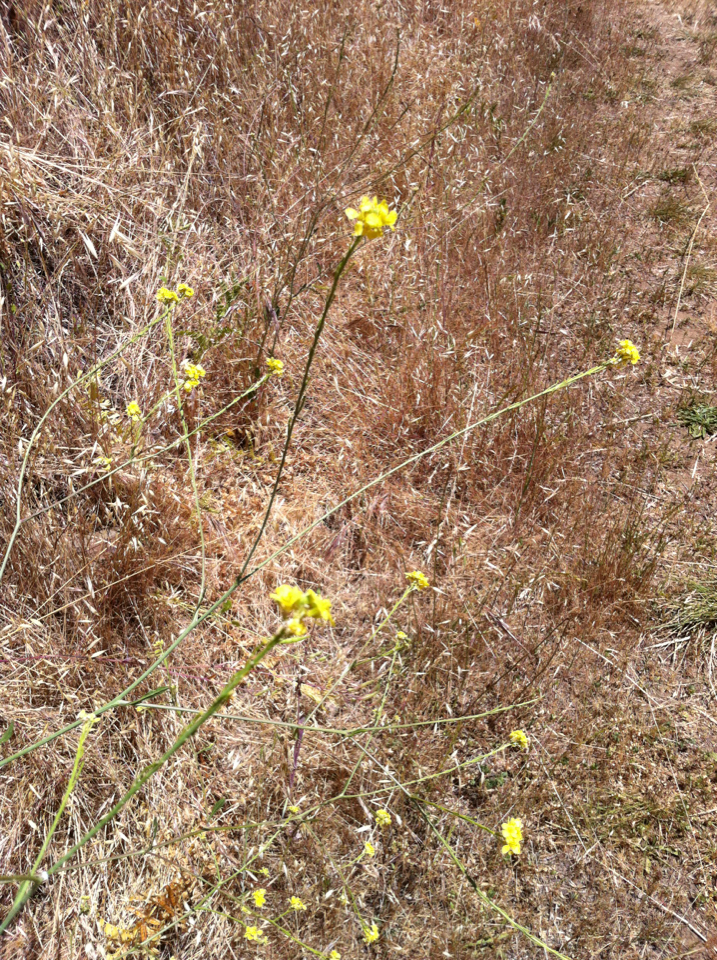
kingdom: Plantae
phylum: Tracheophyta
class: Magnoliopsida
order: Brassicales
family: Brassicaceae
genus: Hirschfeldia
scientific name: Hirschfeldia incana
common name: Hoary mustard
